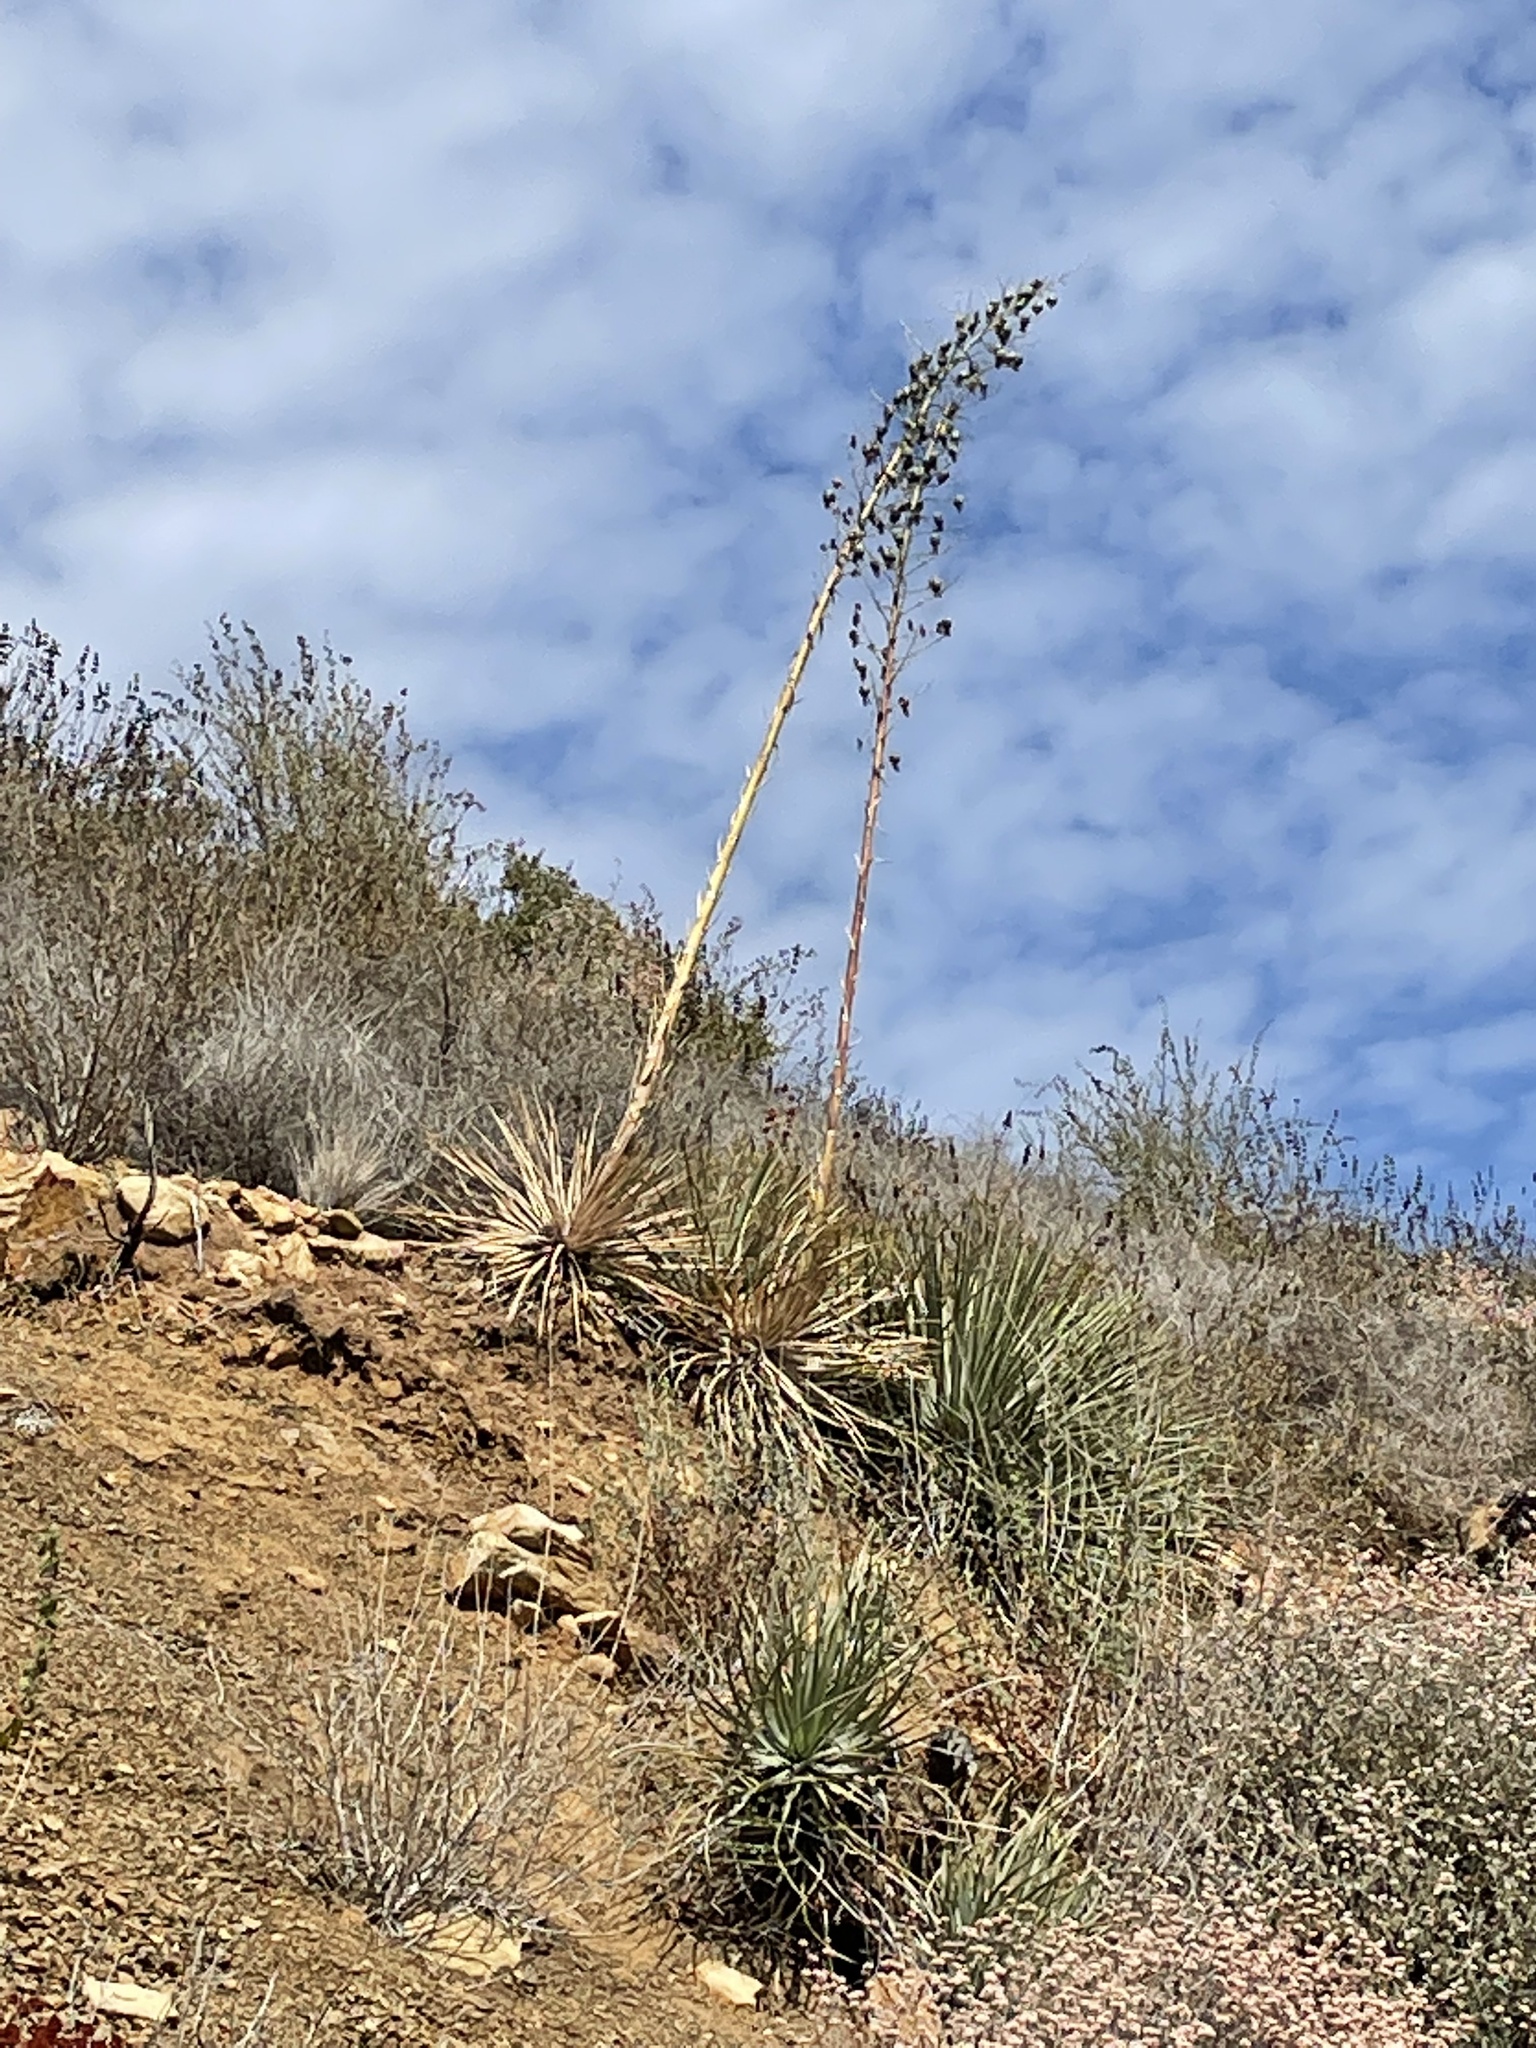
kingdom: Plantae
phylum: Tracheophyta
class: Liliopsida
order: Asparagales
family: Asparagaceae
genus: Hesperoyucca
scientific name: Hesperoyucca whipplei
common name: Our lord's-candle
